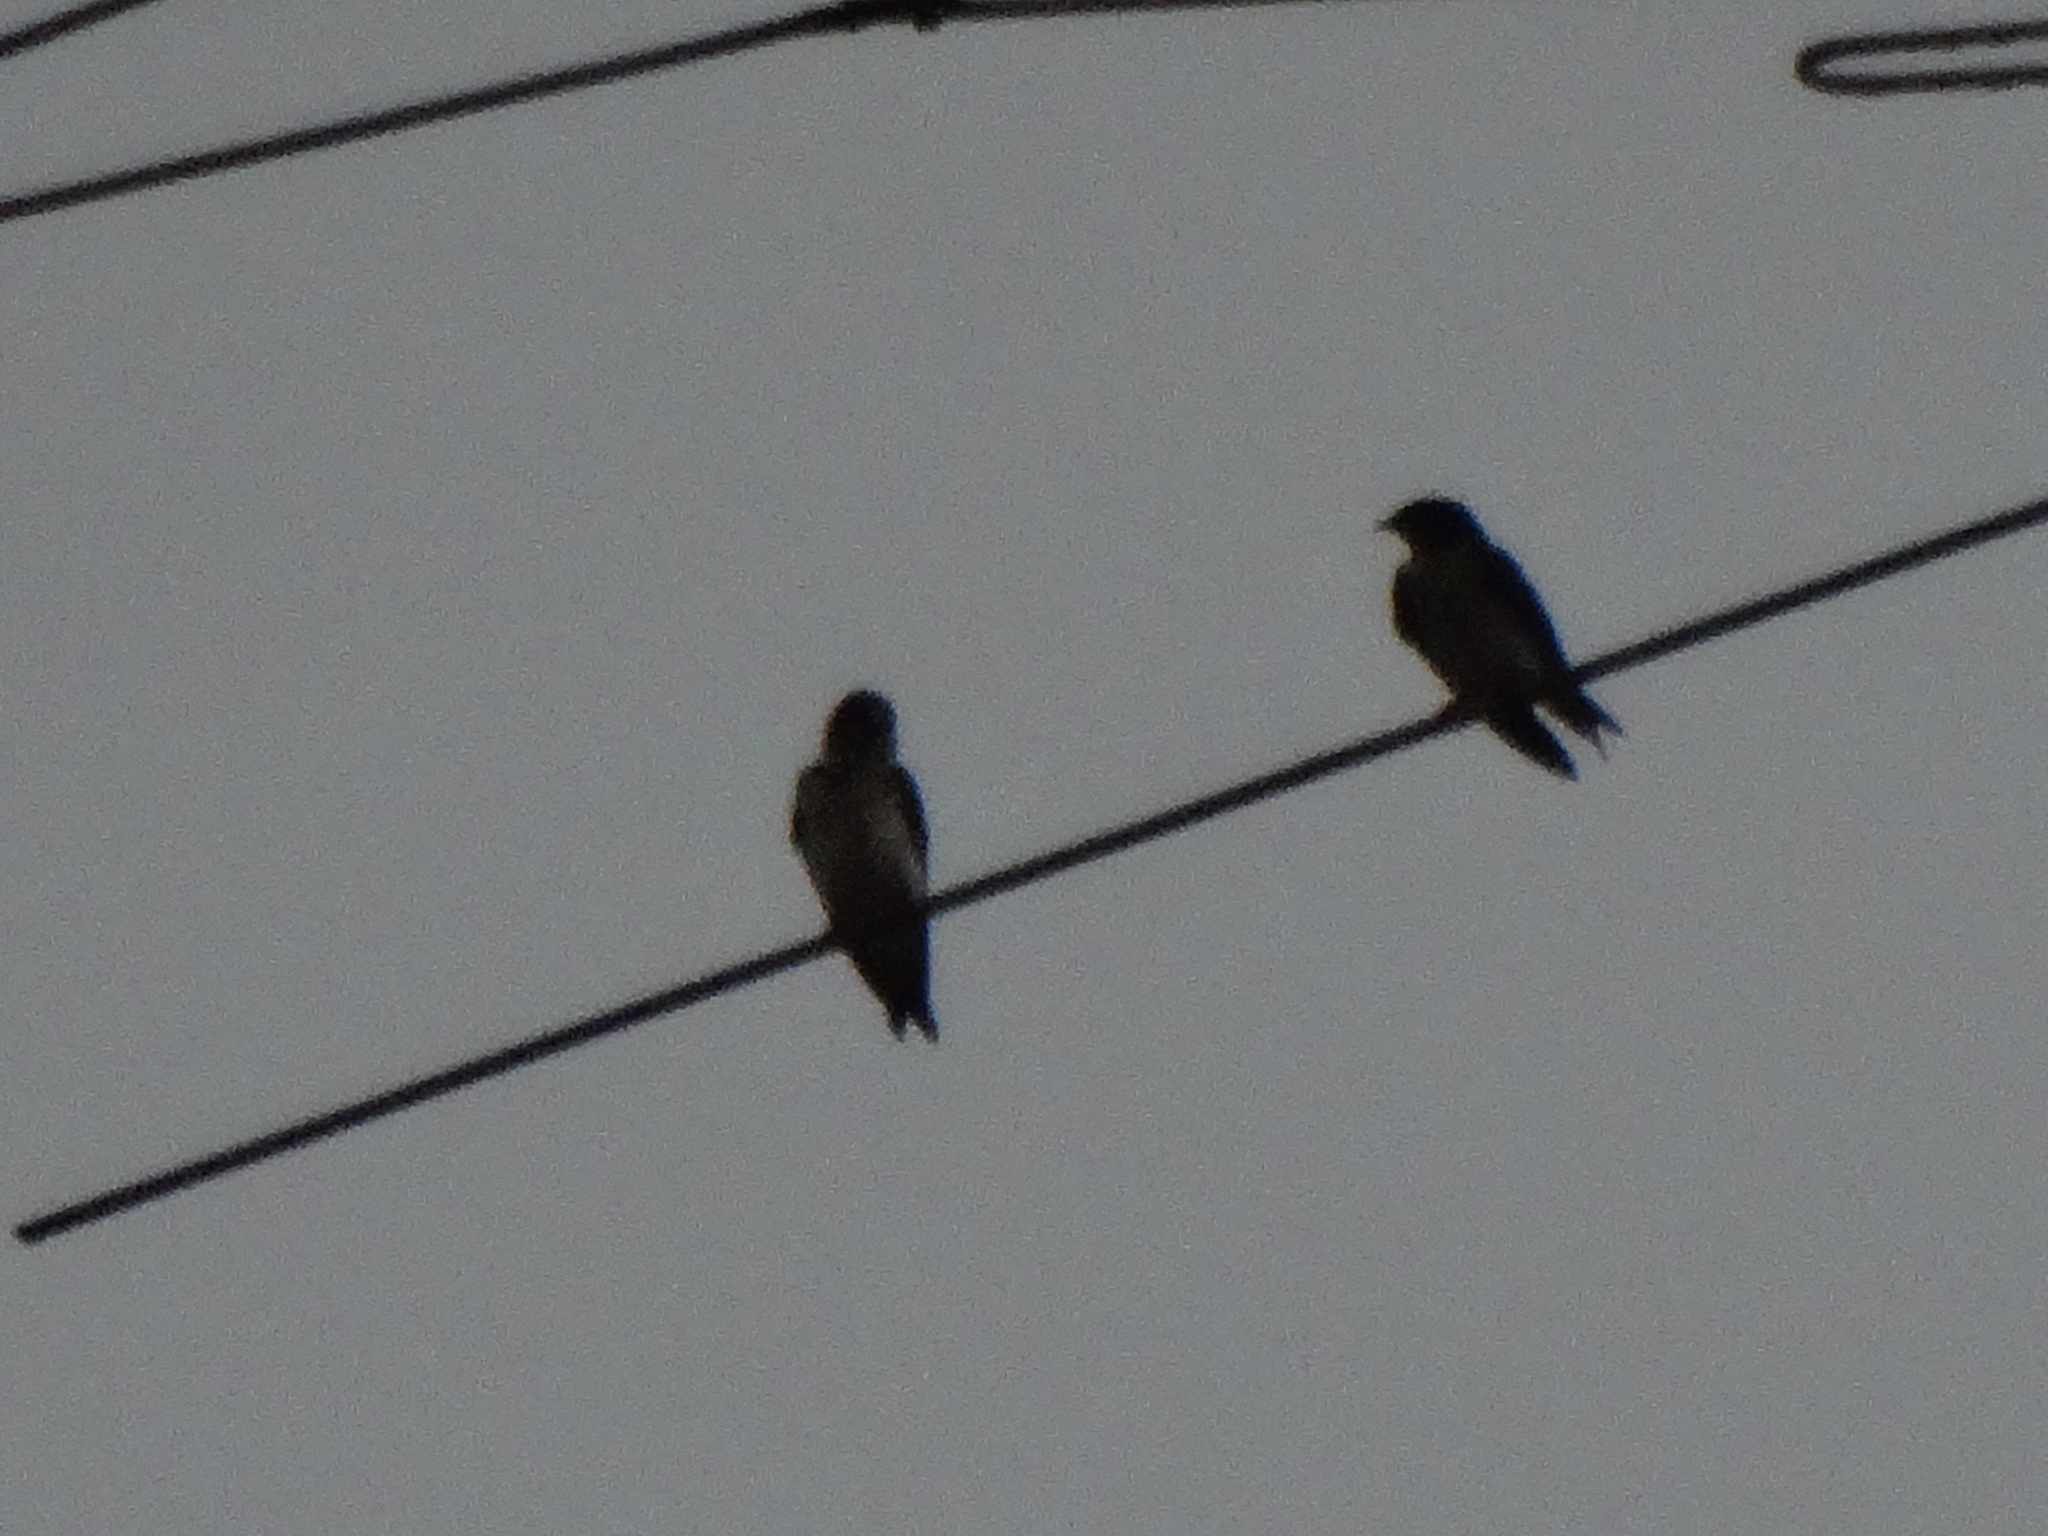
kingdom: Animalia
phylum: Chordata
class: Aves
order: Passeriformes
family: Hirundinidae
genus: Progne
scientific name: Progne chalybea
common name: Grey-breasted martin
